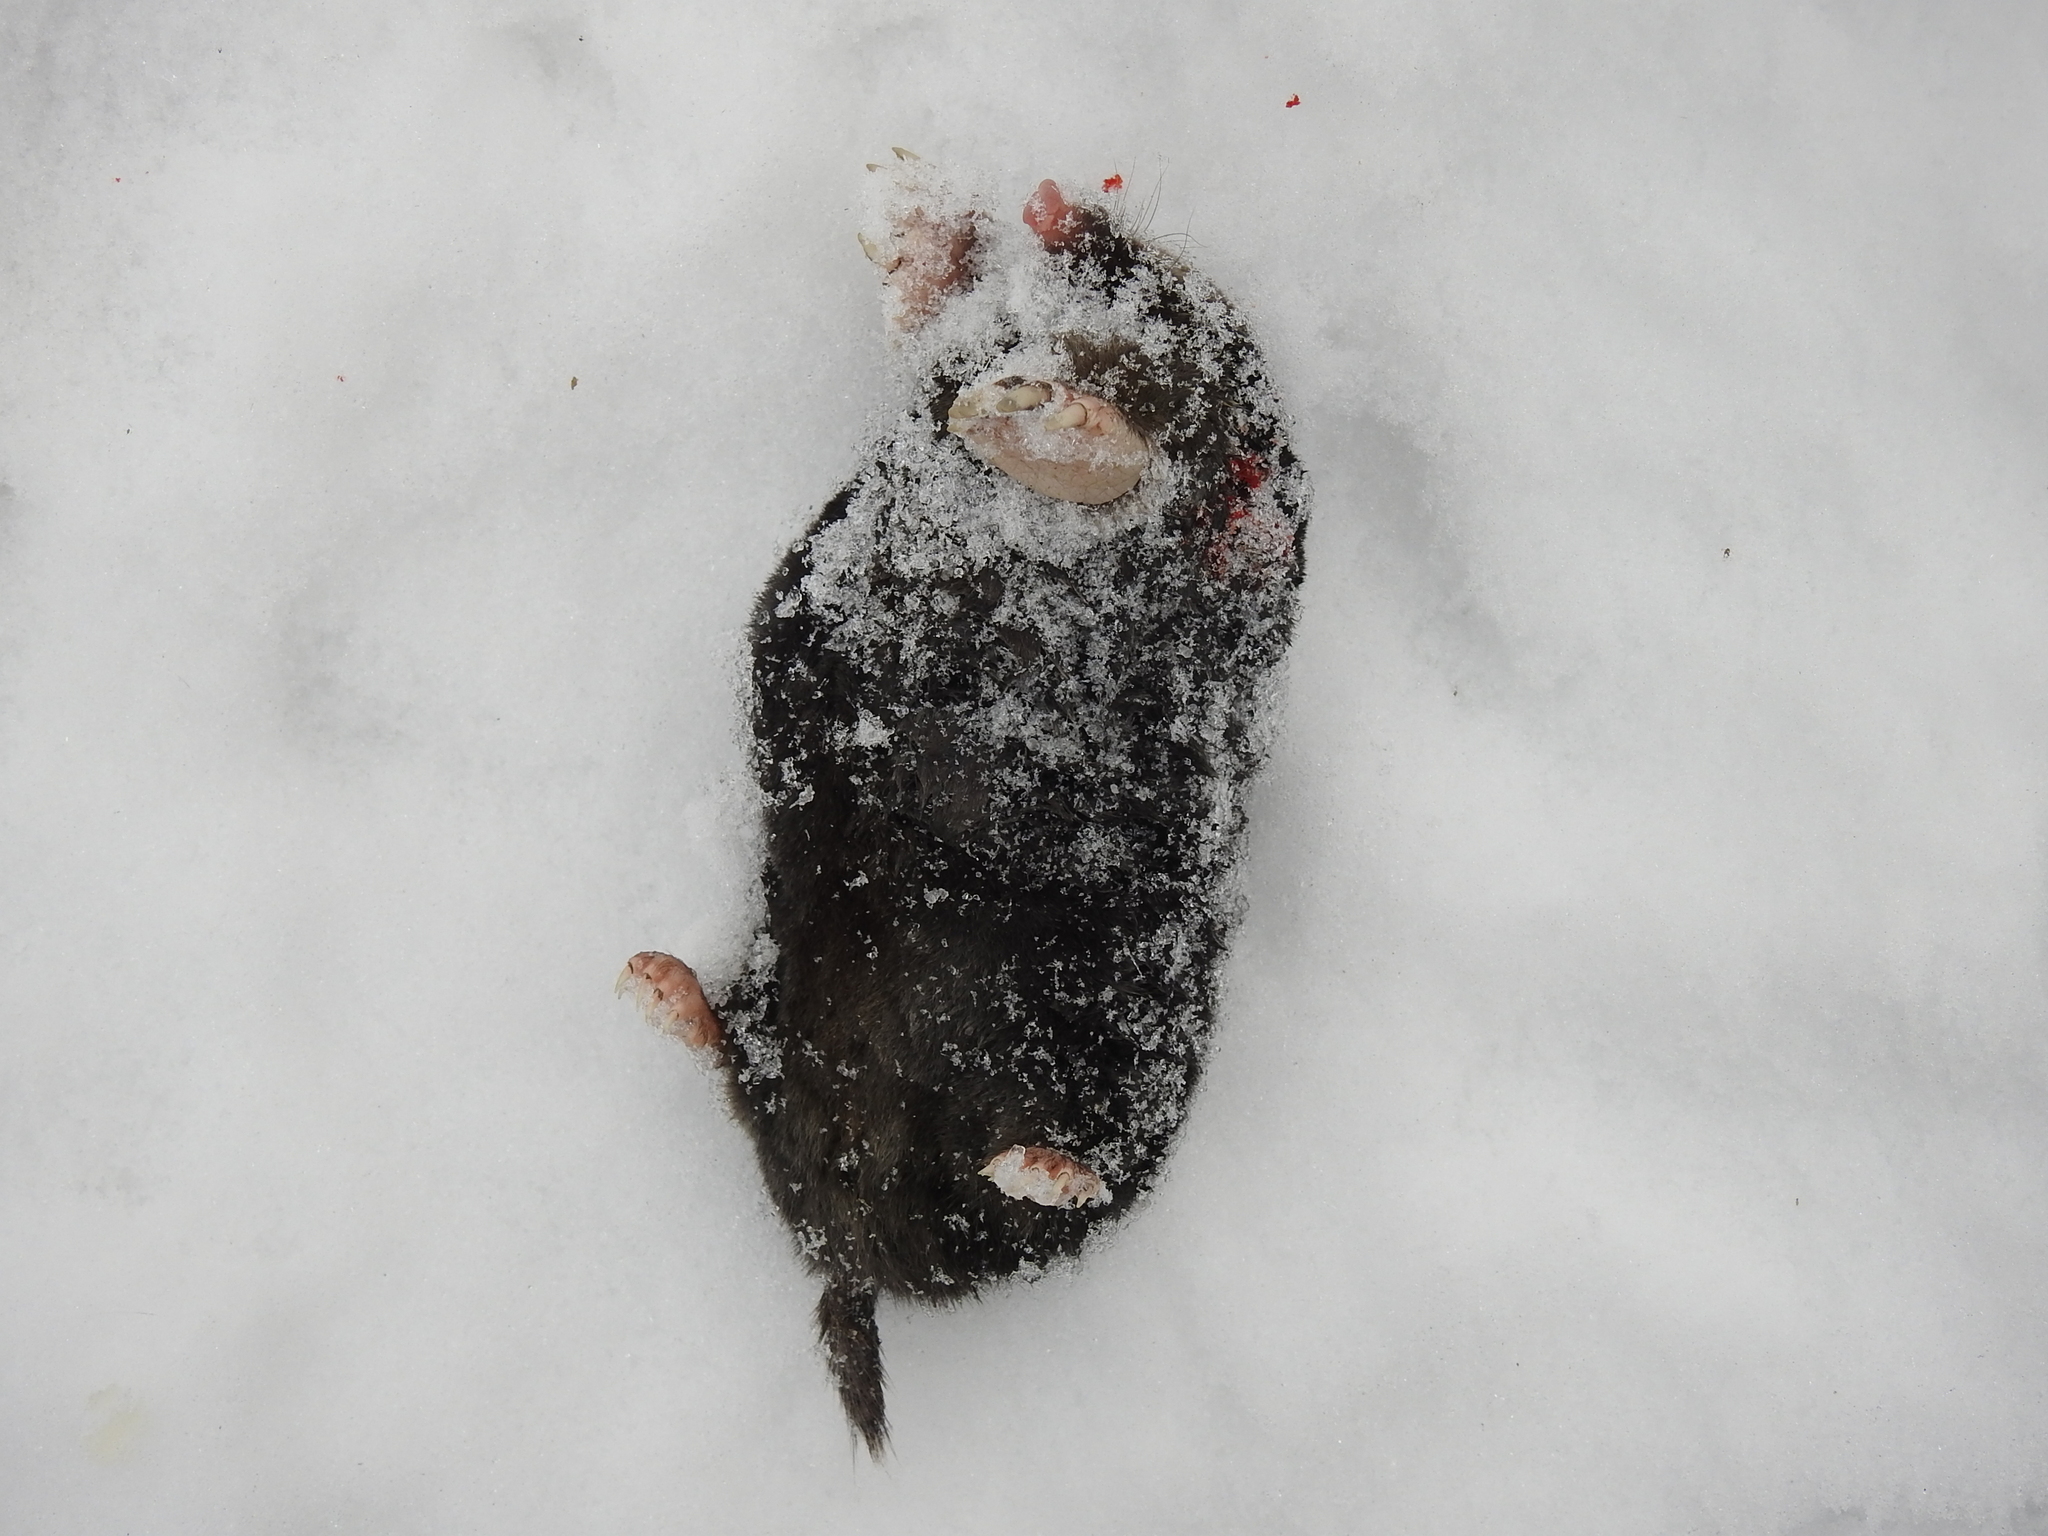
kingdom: Animalia
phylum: Chordata
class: Mammalia
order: Soricomorpha
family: Talpidae
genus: Talpa
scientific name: Talpa europaea
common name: European mole
